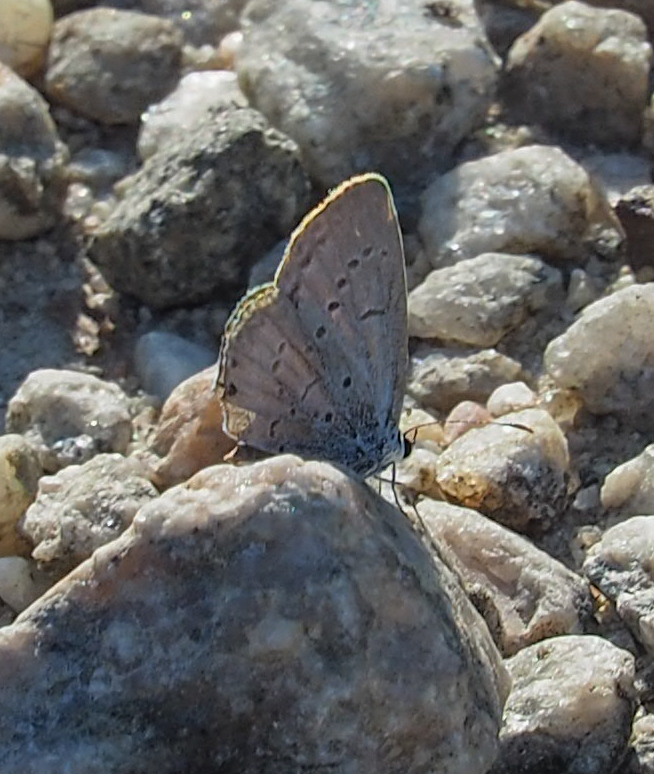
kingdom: Animalia
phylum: Arthropoda
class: Insecta
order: Lepidoptera
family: Lycaenidae
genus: Cyaniris
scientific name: Cyaniris neglecta
